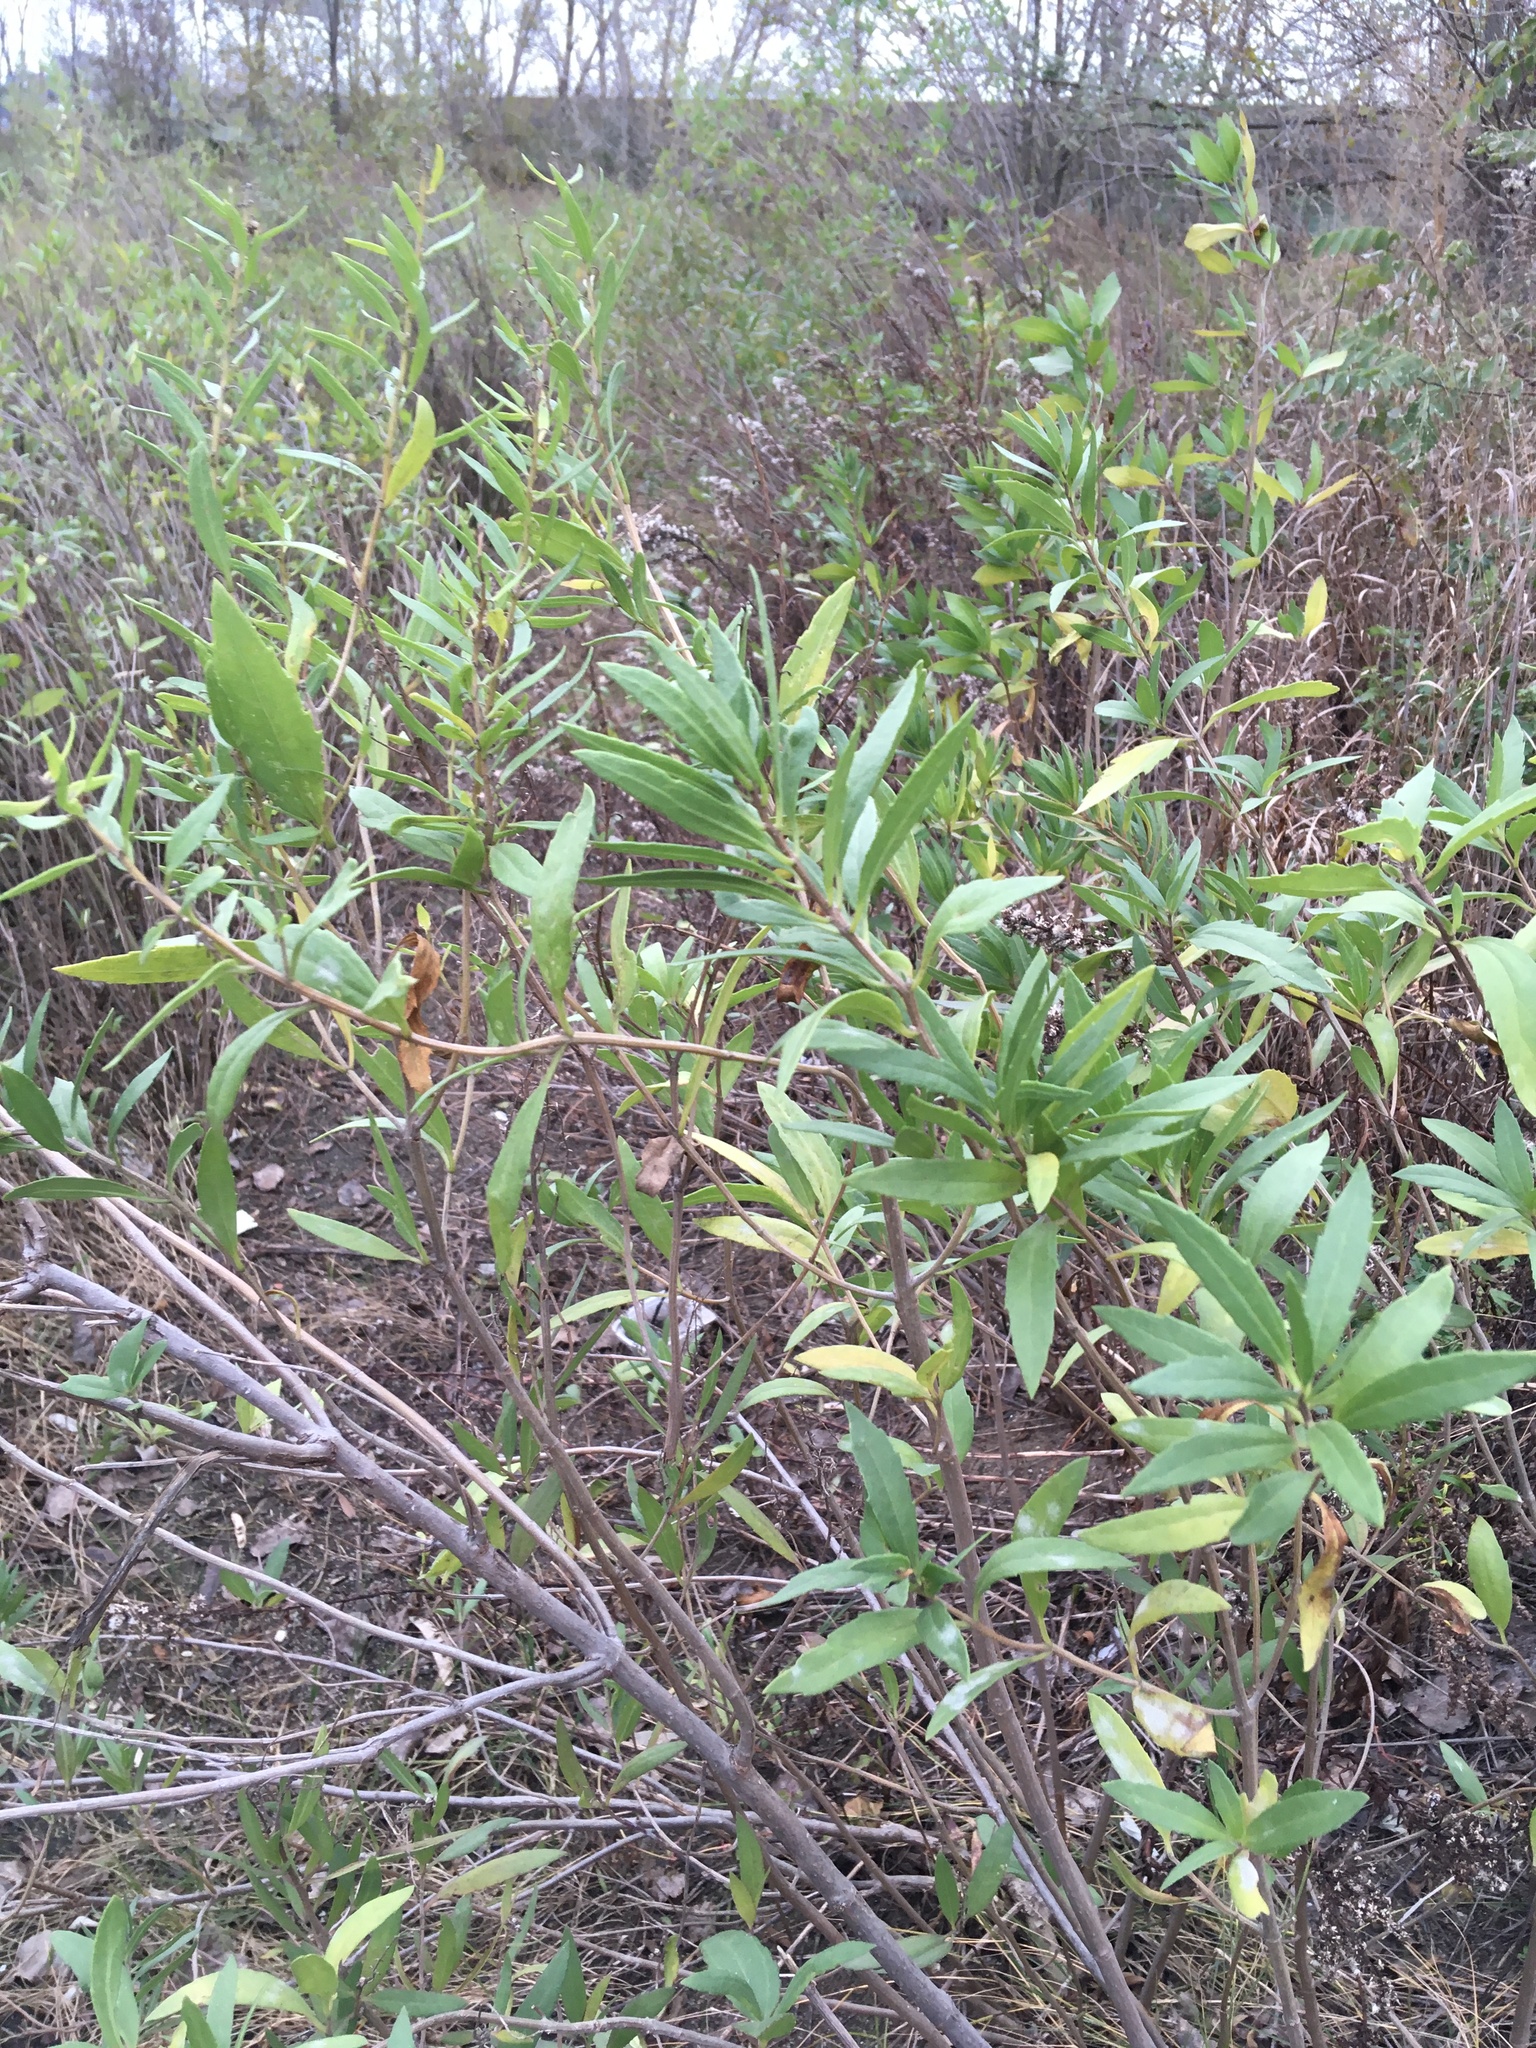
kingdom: Plantae
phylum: Tracheophyta
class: Magnoliopsida
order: Asterales
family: Asteraceae
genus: Iva
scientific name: Iva frutescens
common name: Big-leaved marsh-elder
